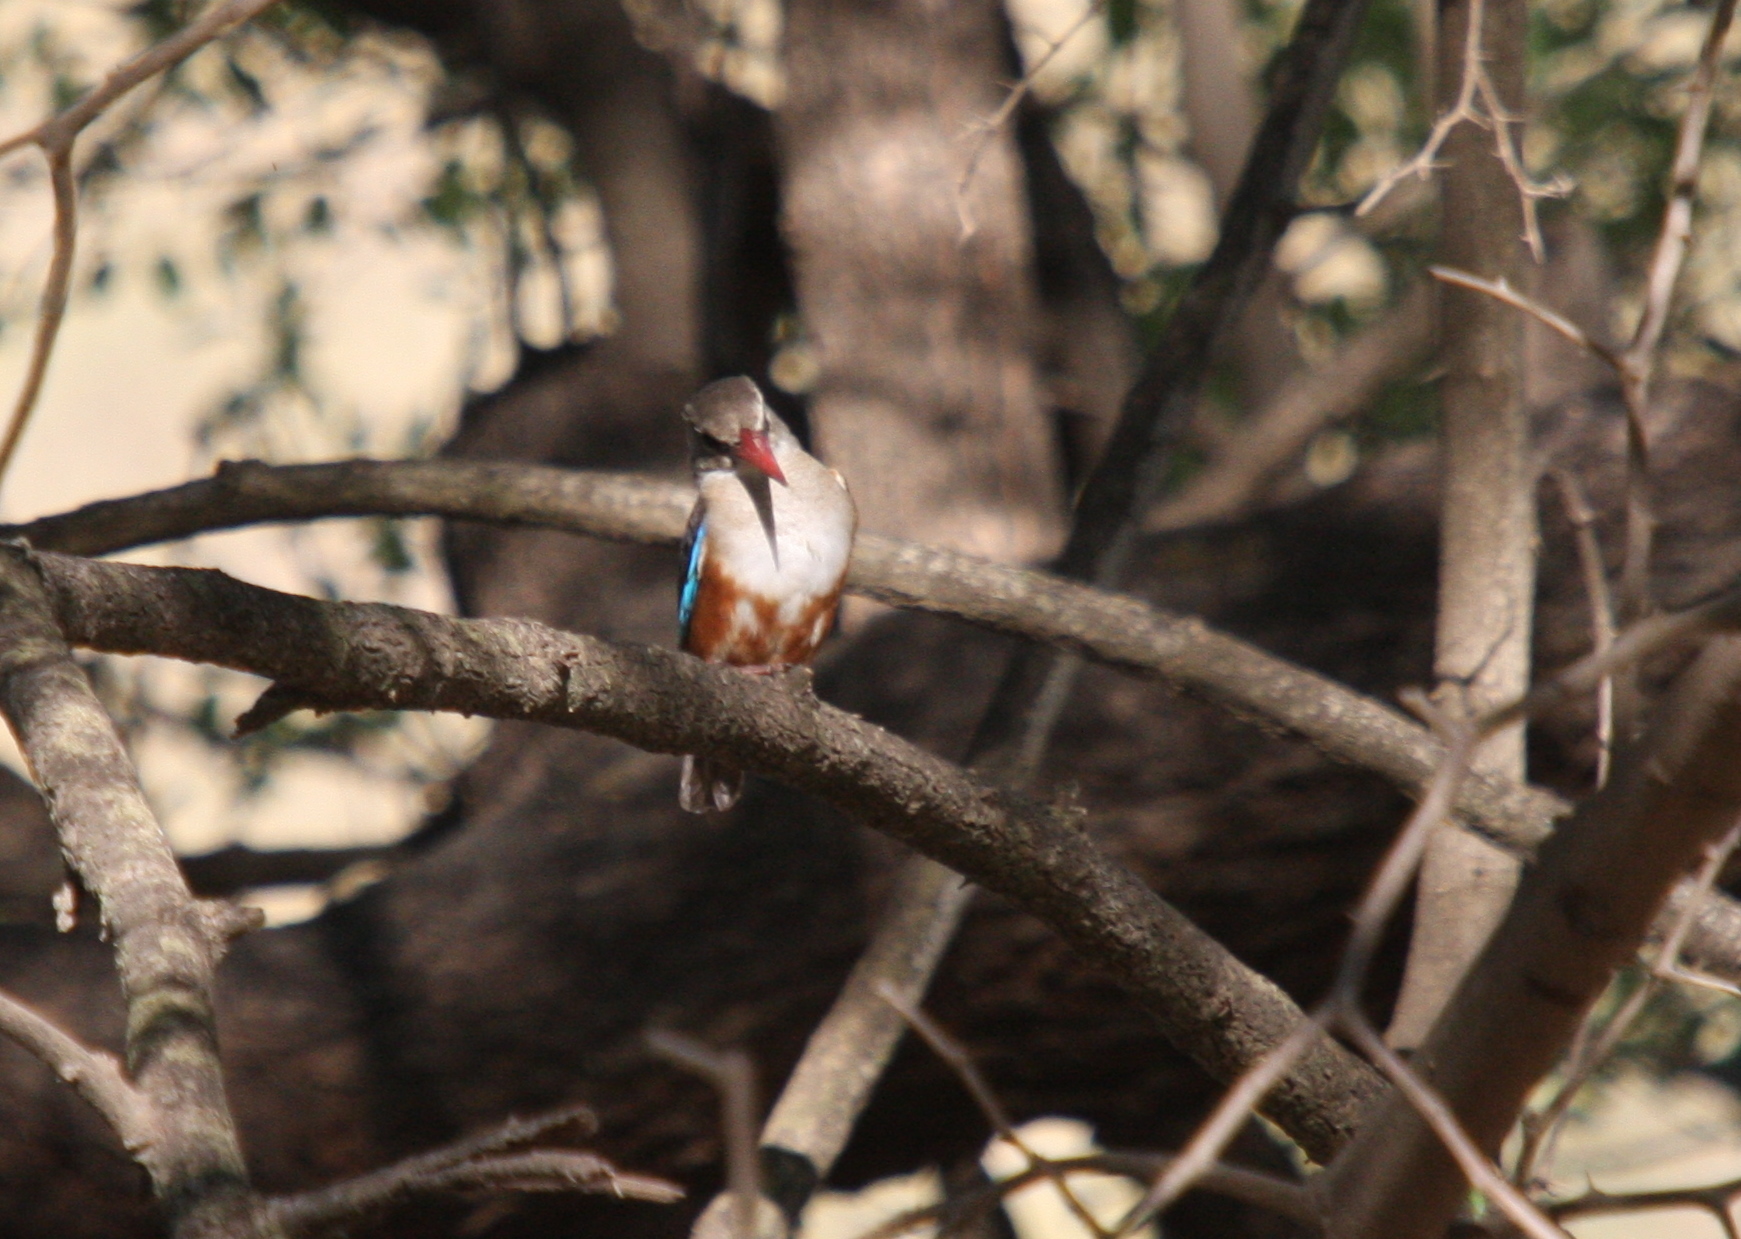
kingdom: Animalia
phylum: Chordata
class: Aves
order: Coraciiformes
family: Alcedinidae
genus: Halcyon
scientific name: Halcyon leucocephala
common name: Grey-headed kingfisher
